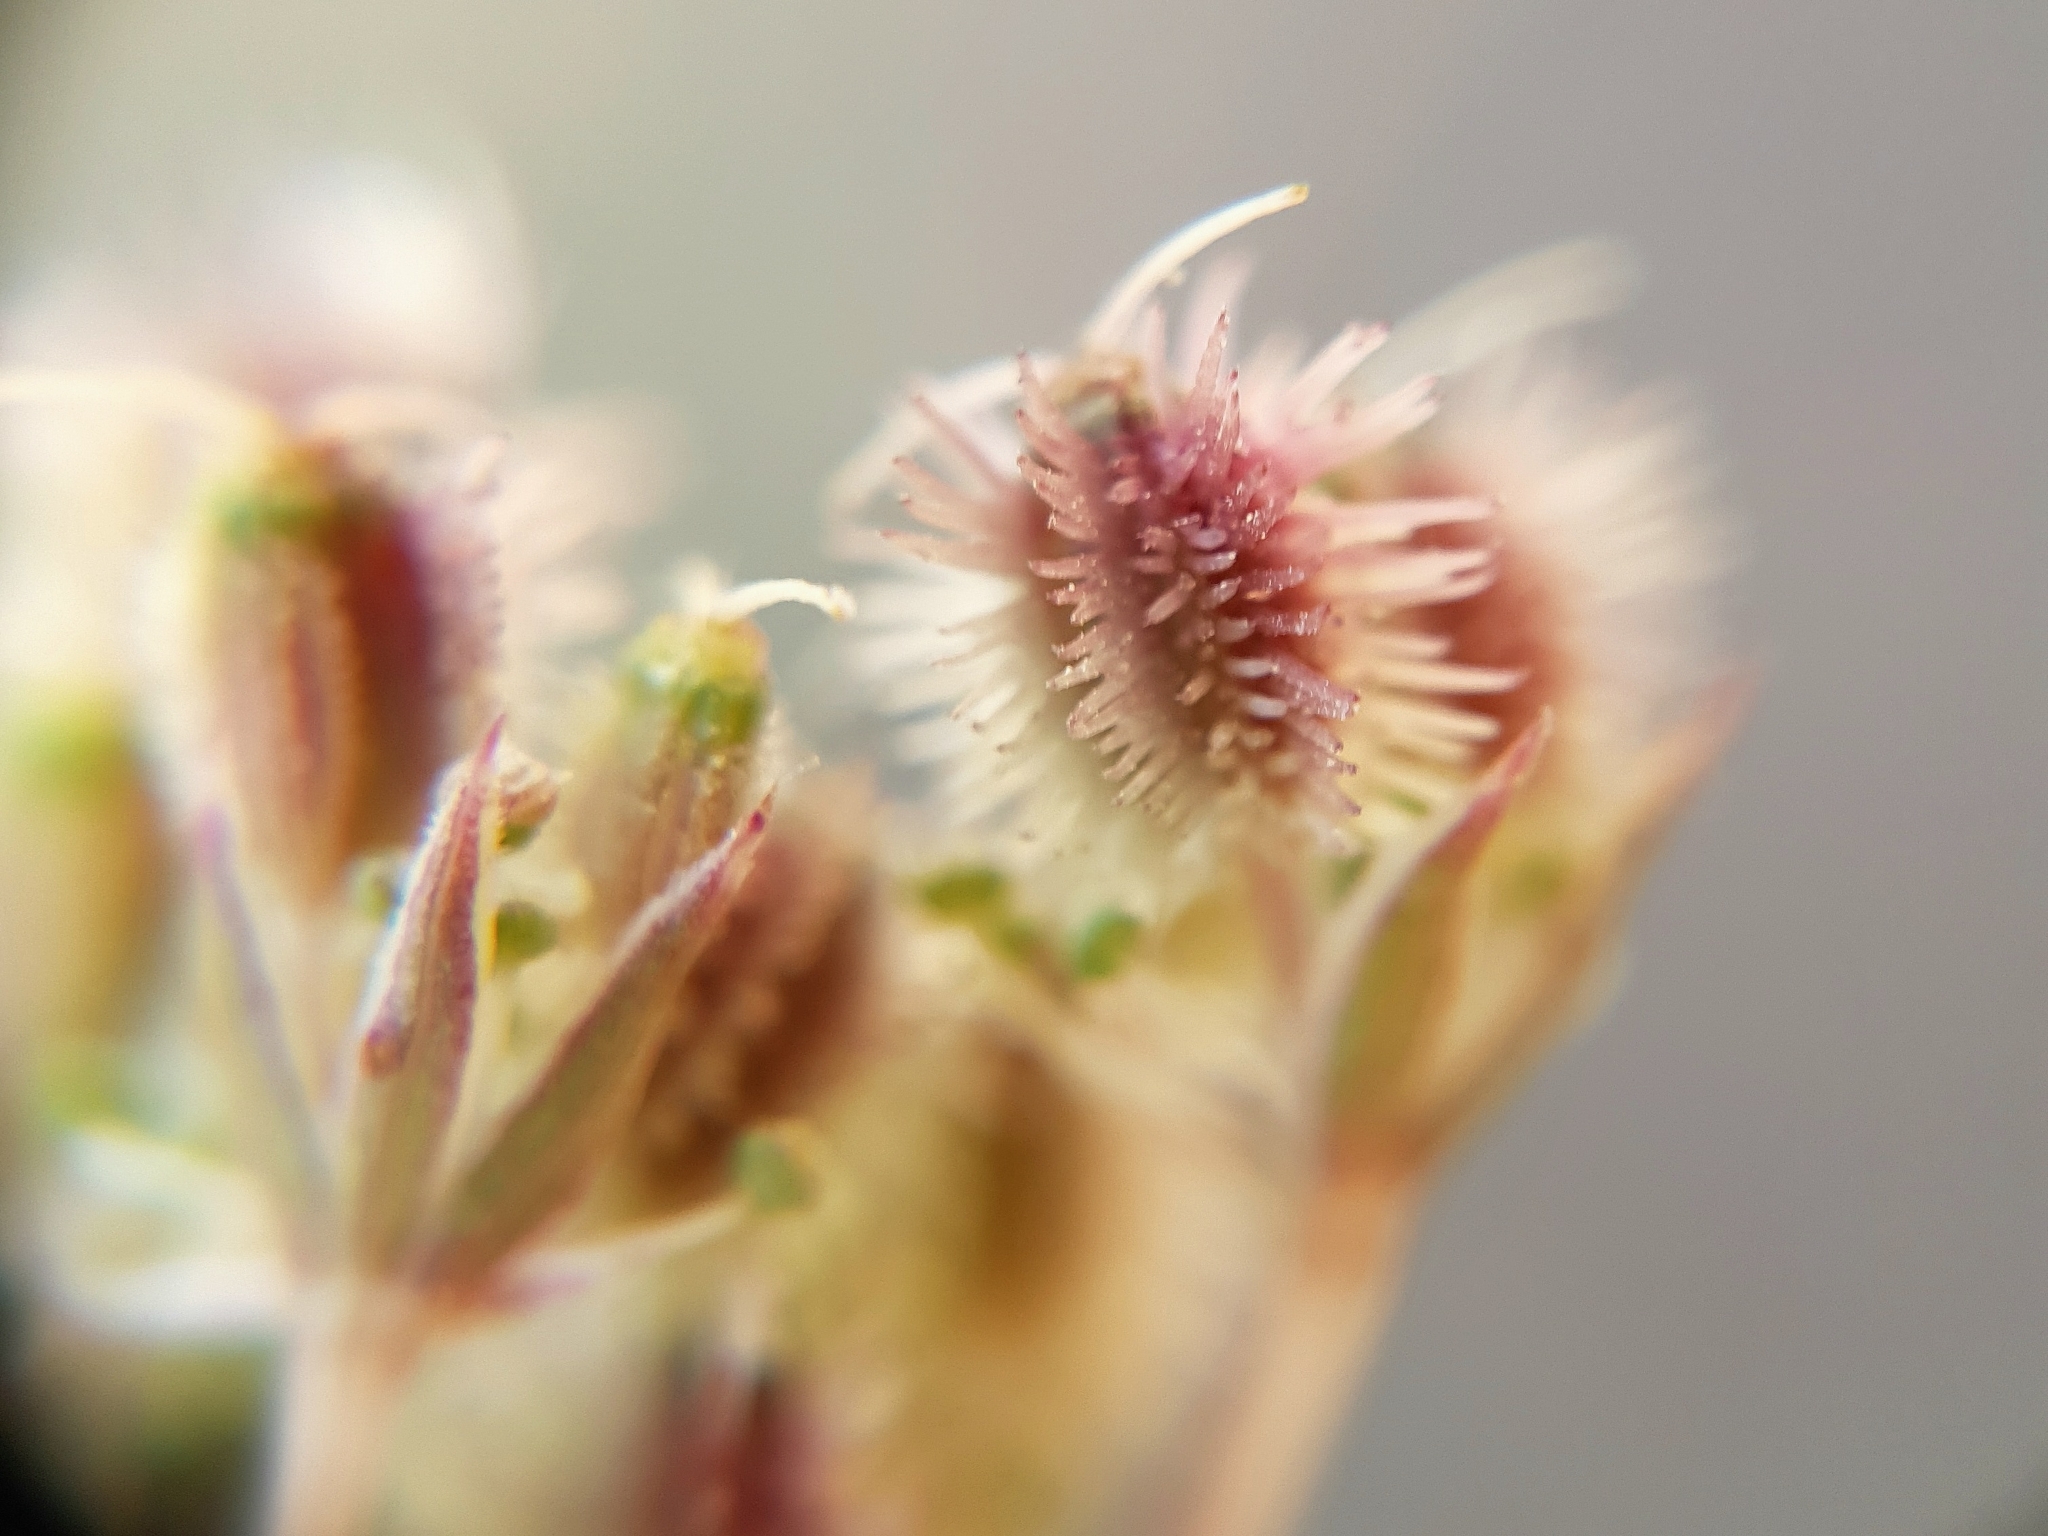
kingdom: Plantae
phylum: Tracheophyta
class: Magnoliopsida
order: Apiales
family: Apiaceae
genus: Daucus
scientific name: Daucus virgatus
